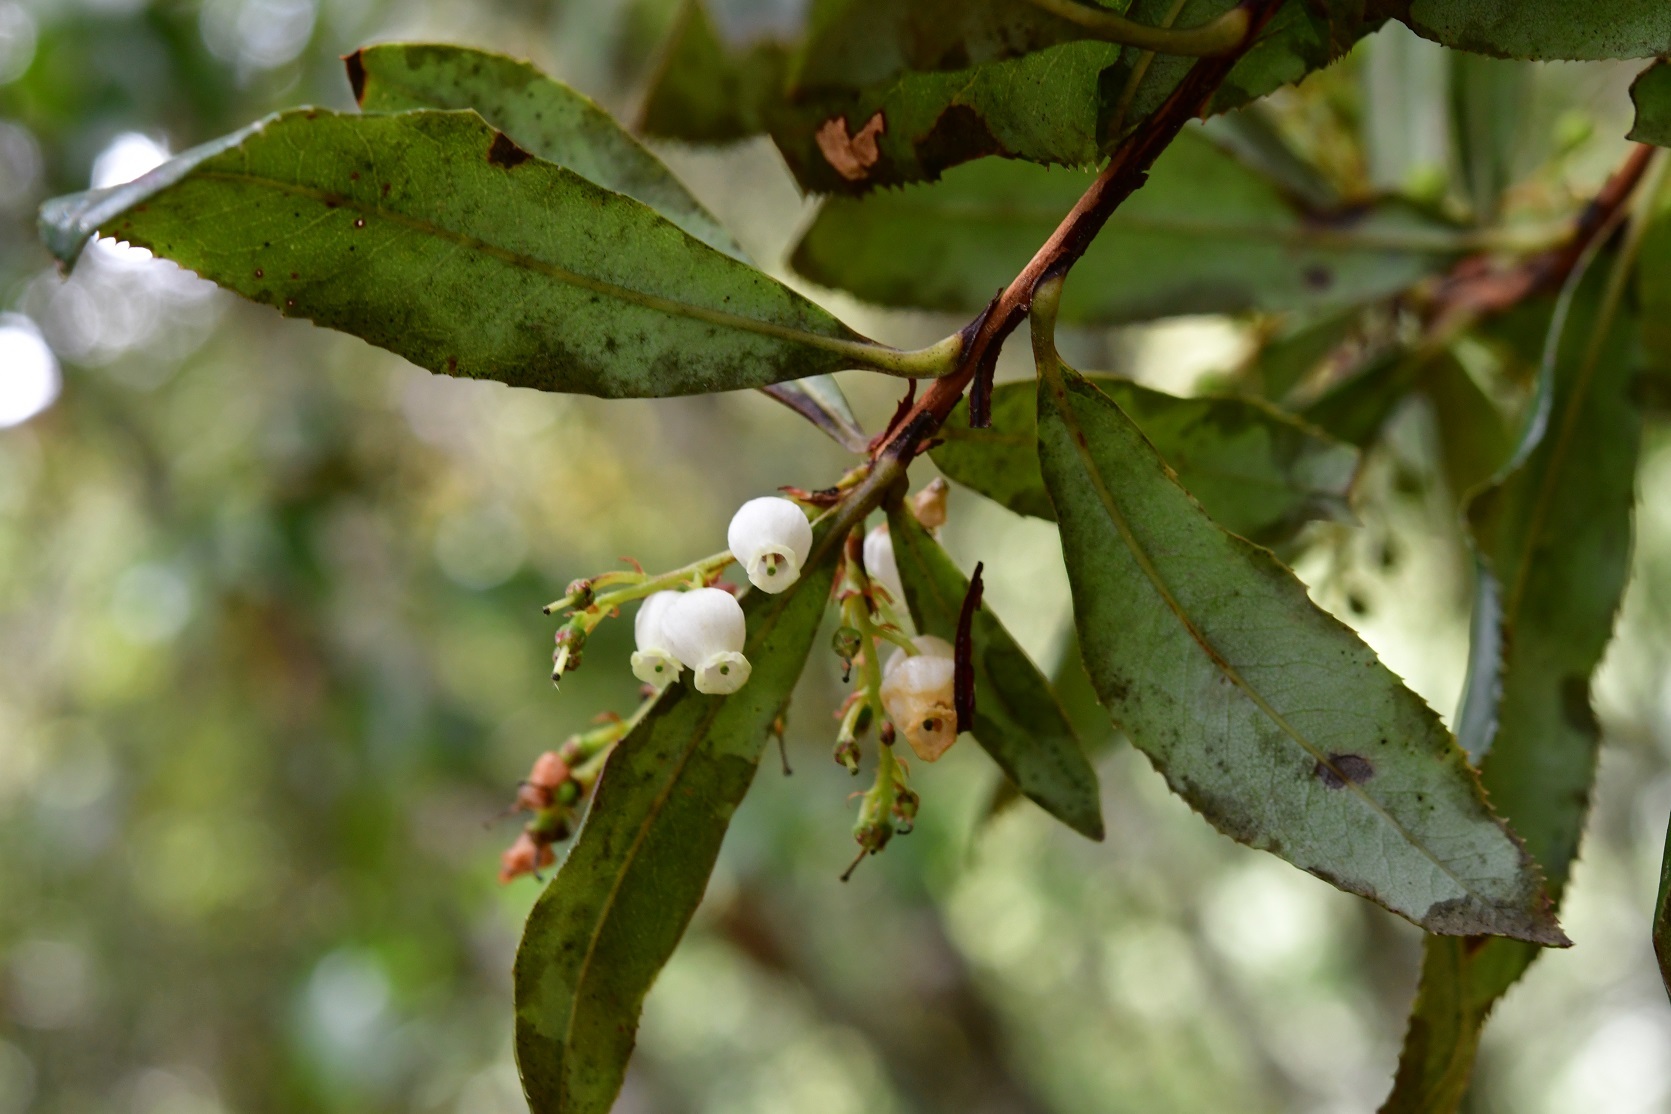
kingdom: Plantae
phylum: Tracheophyta
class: Magnoliopsida
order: Ericales
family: Ericaceae
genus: Comarostaphylis
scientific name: Comarostaphylis discolor
